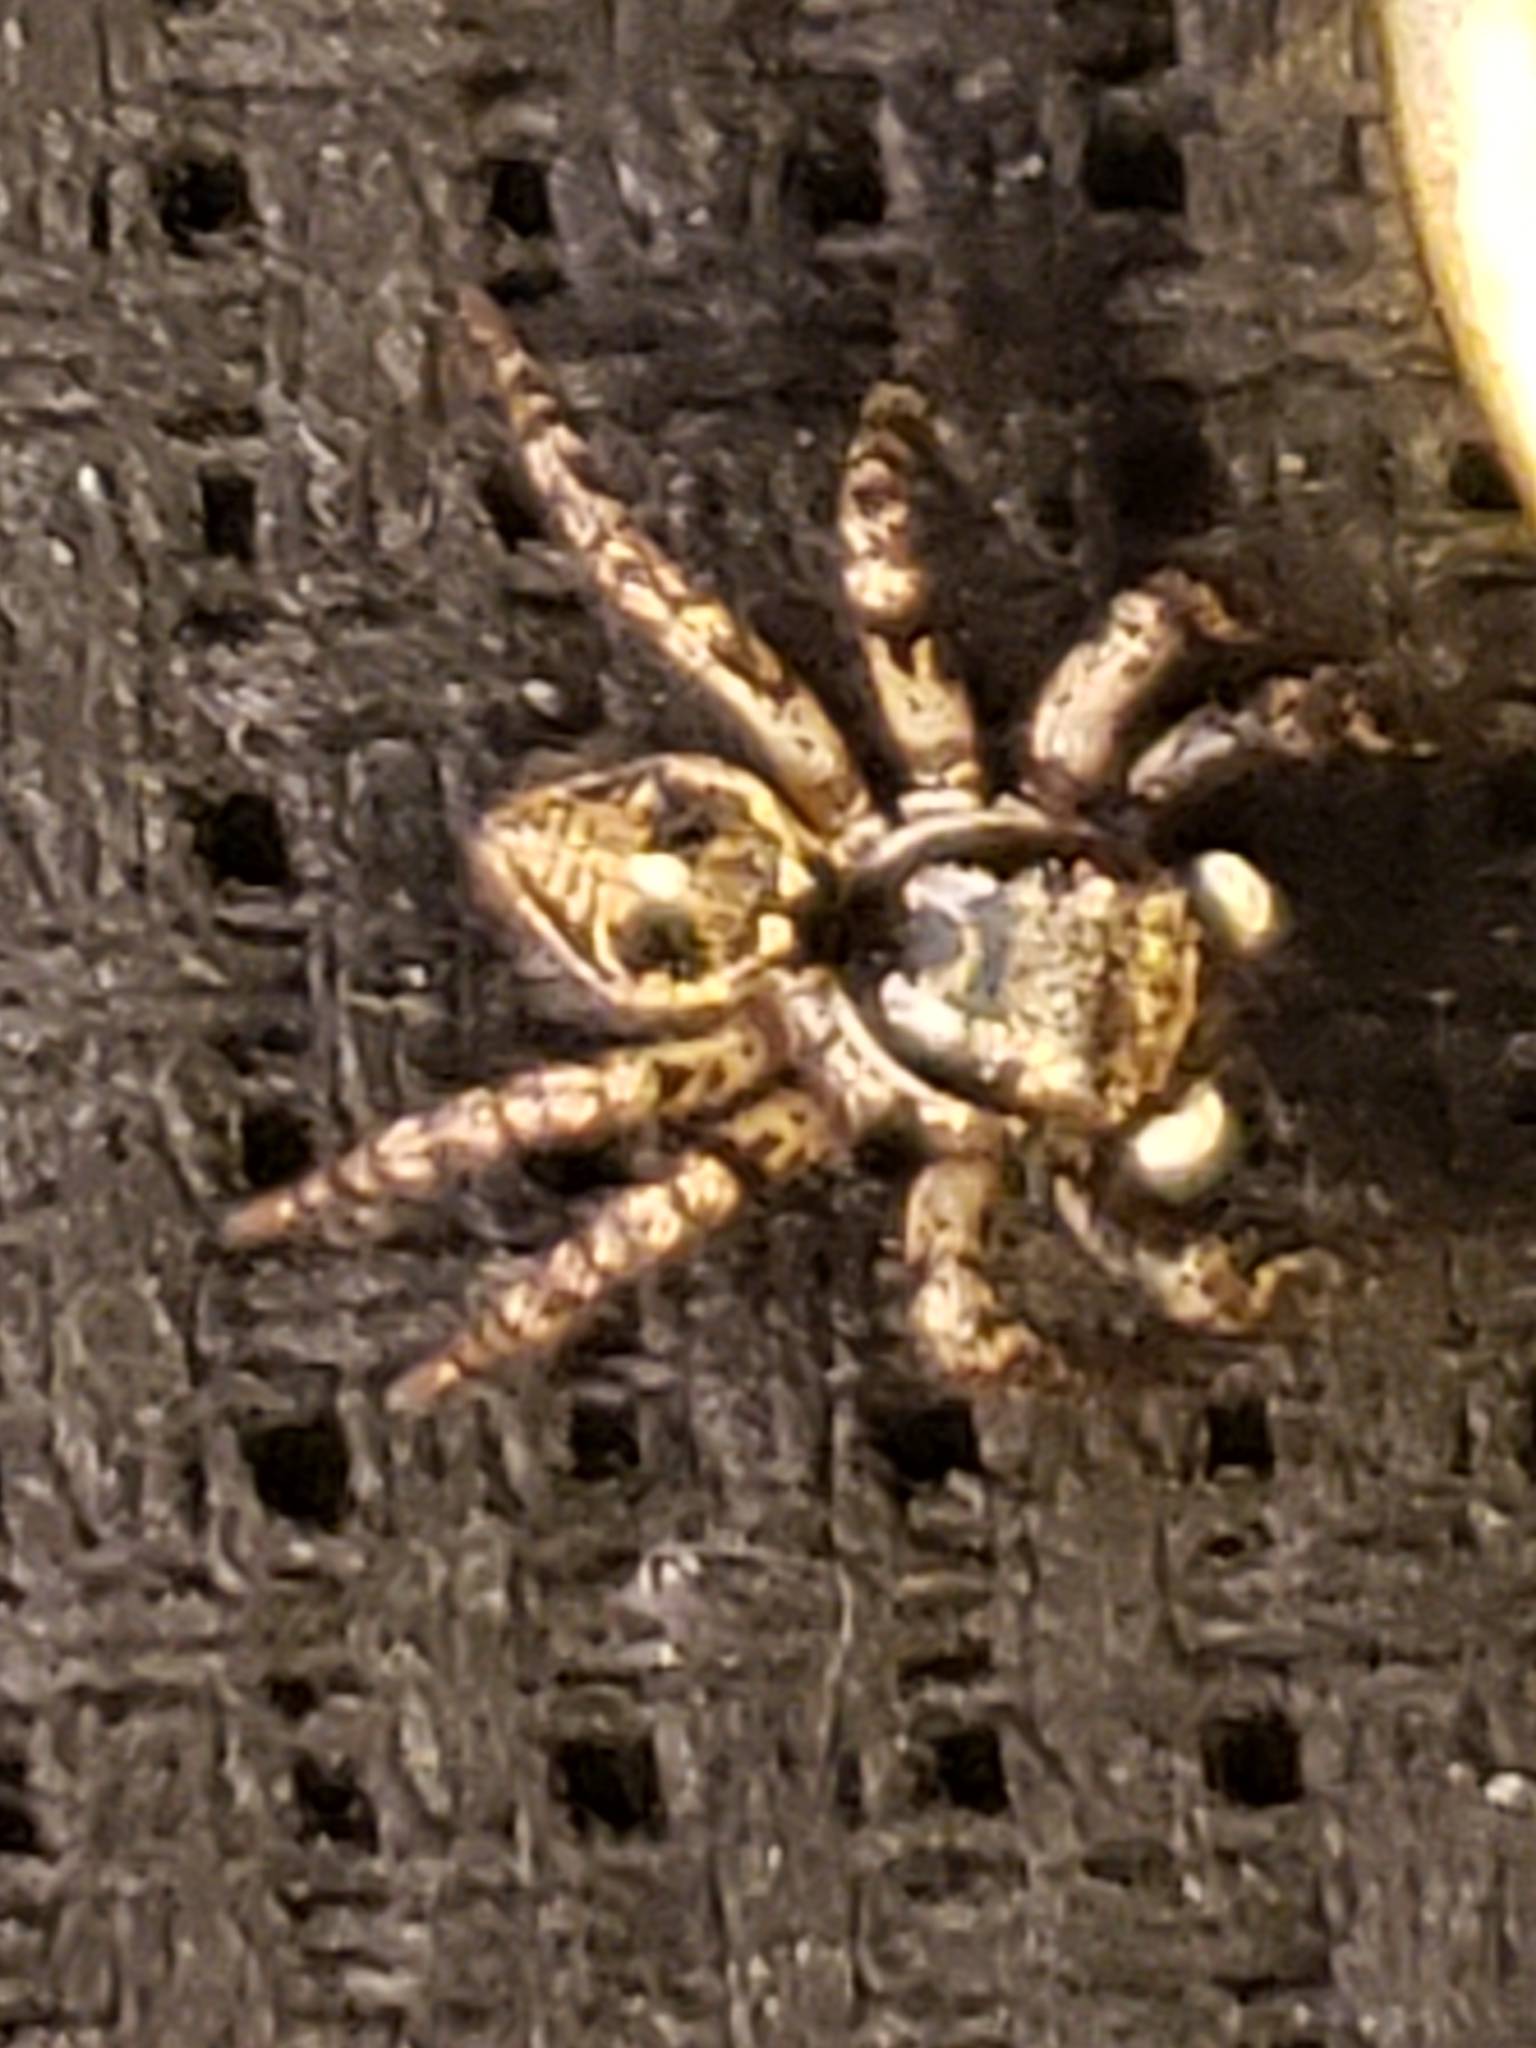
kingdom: Animalia
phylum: Arthropoda
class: Arachnida
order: Araneae
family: Salticidae
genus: Anasaitis
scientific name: Anasaitis canosa
